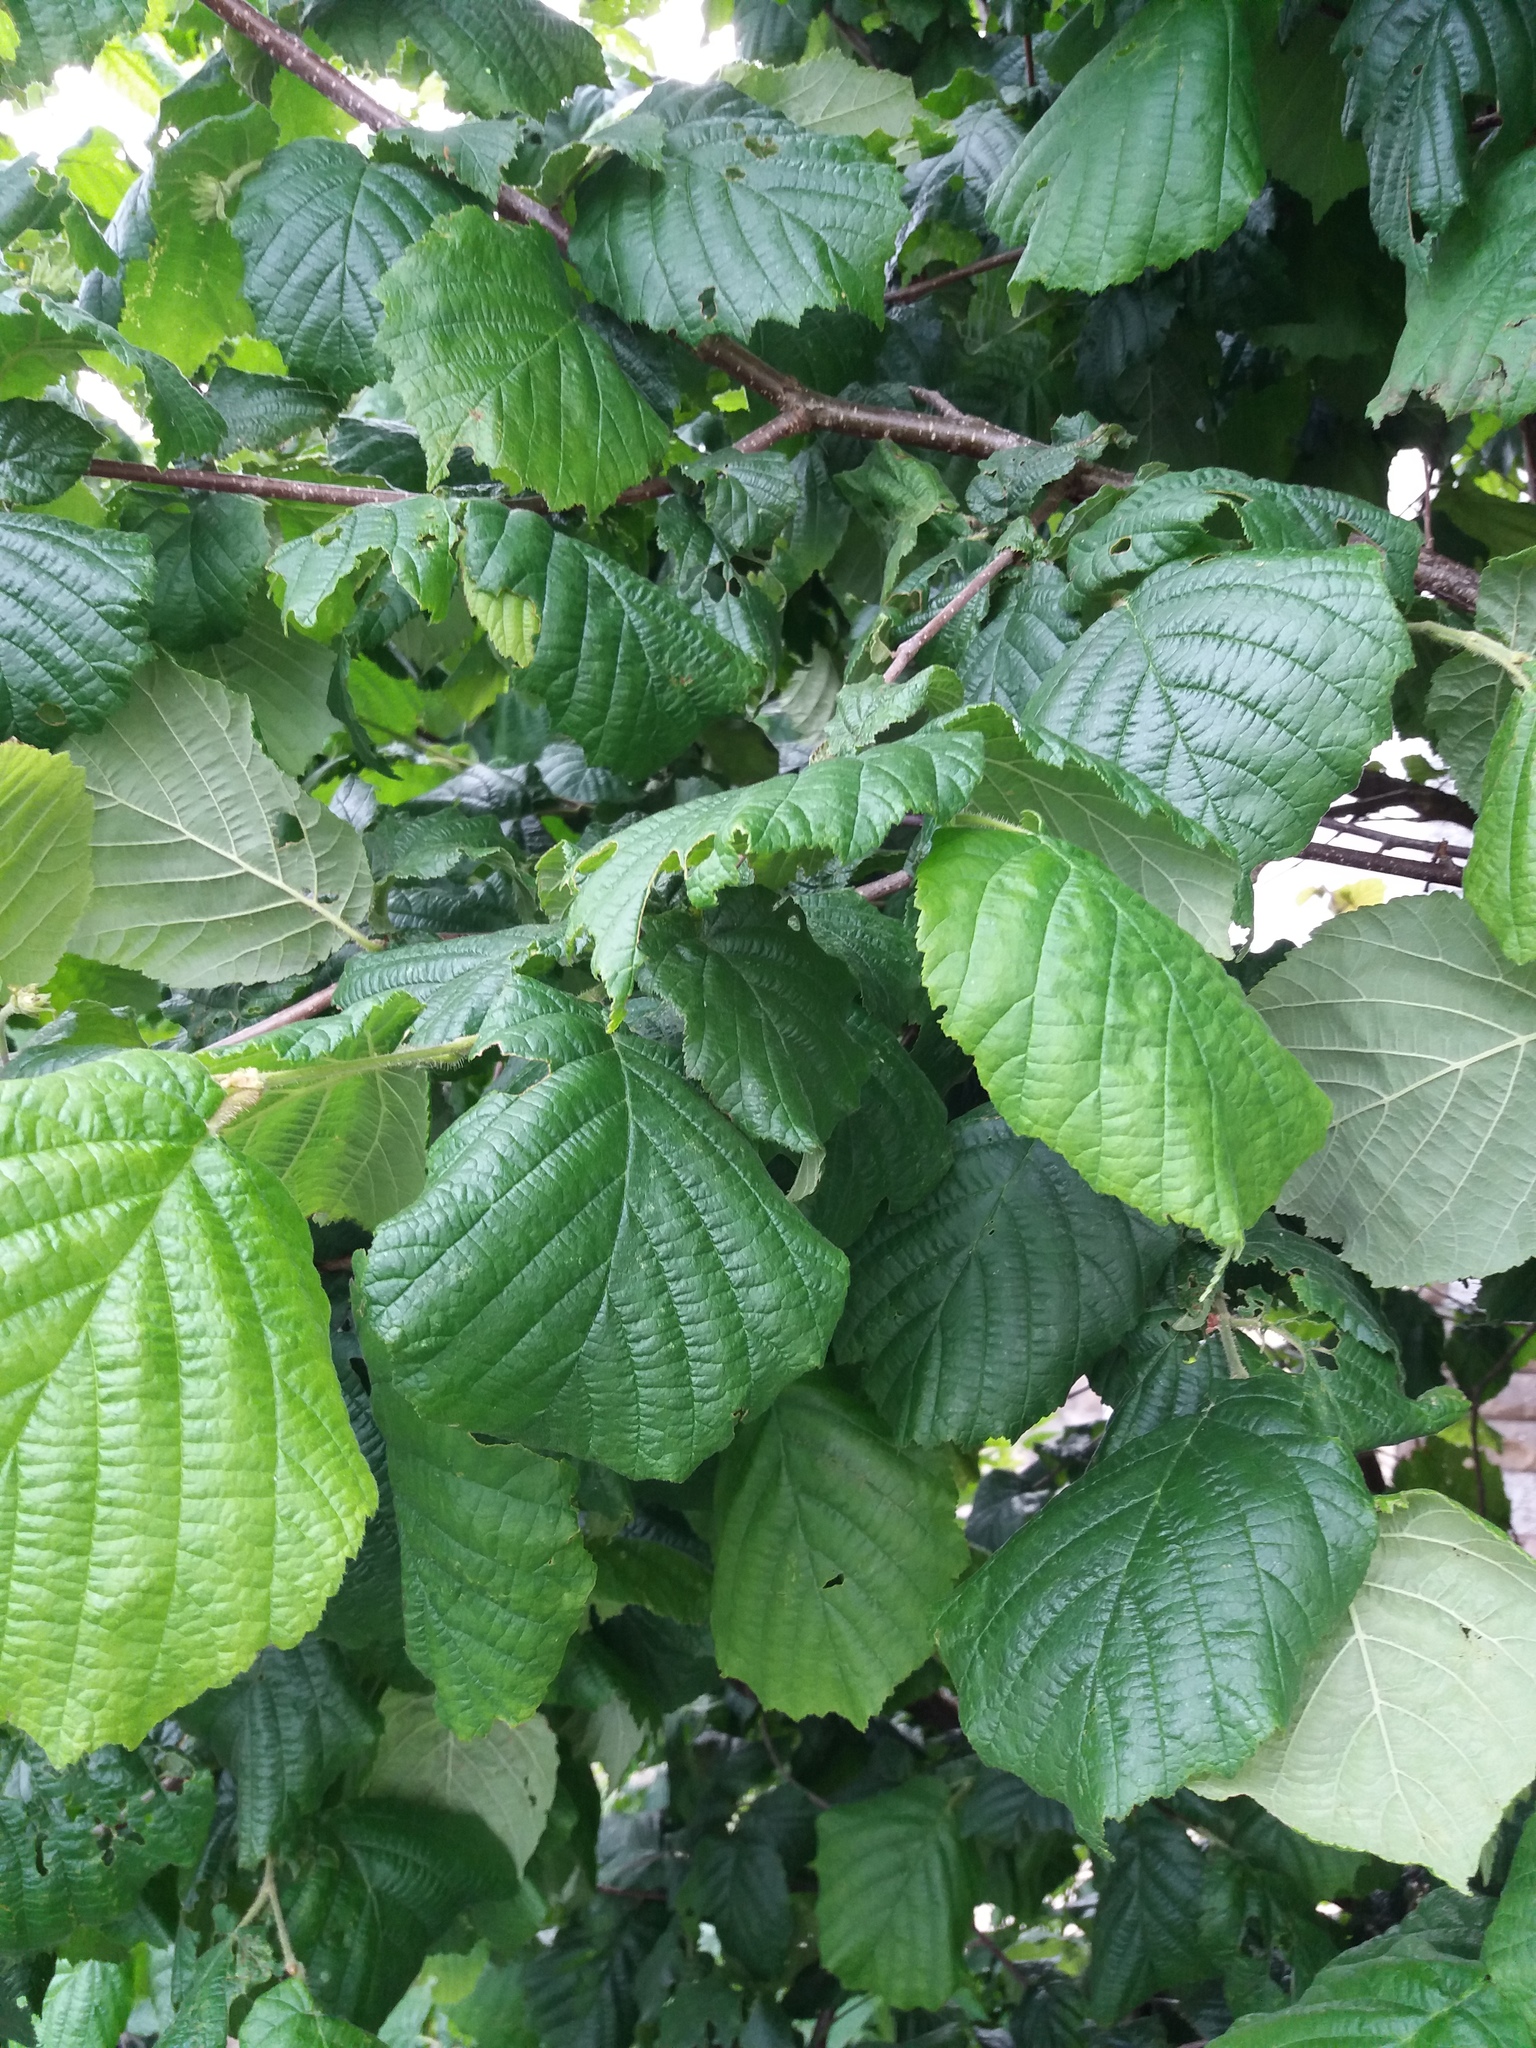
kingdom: Plantae
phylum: Tracheophyta
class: Magnoliopsida
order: Fagales
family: Betulaceae
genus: Corylus
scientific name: Corylus avellana
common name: European hazel
